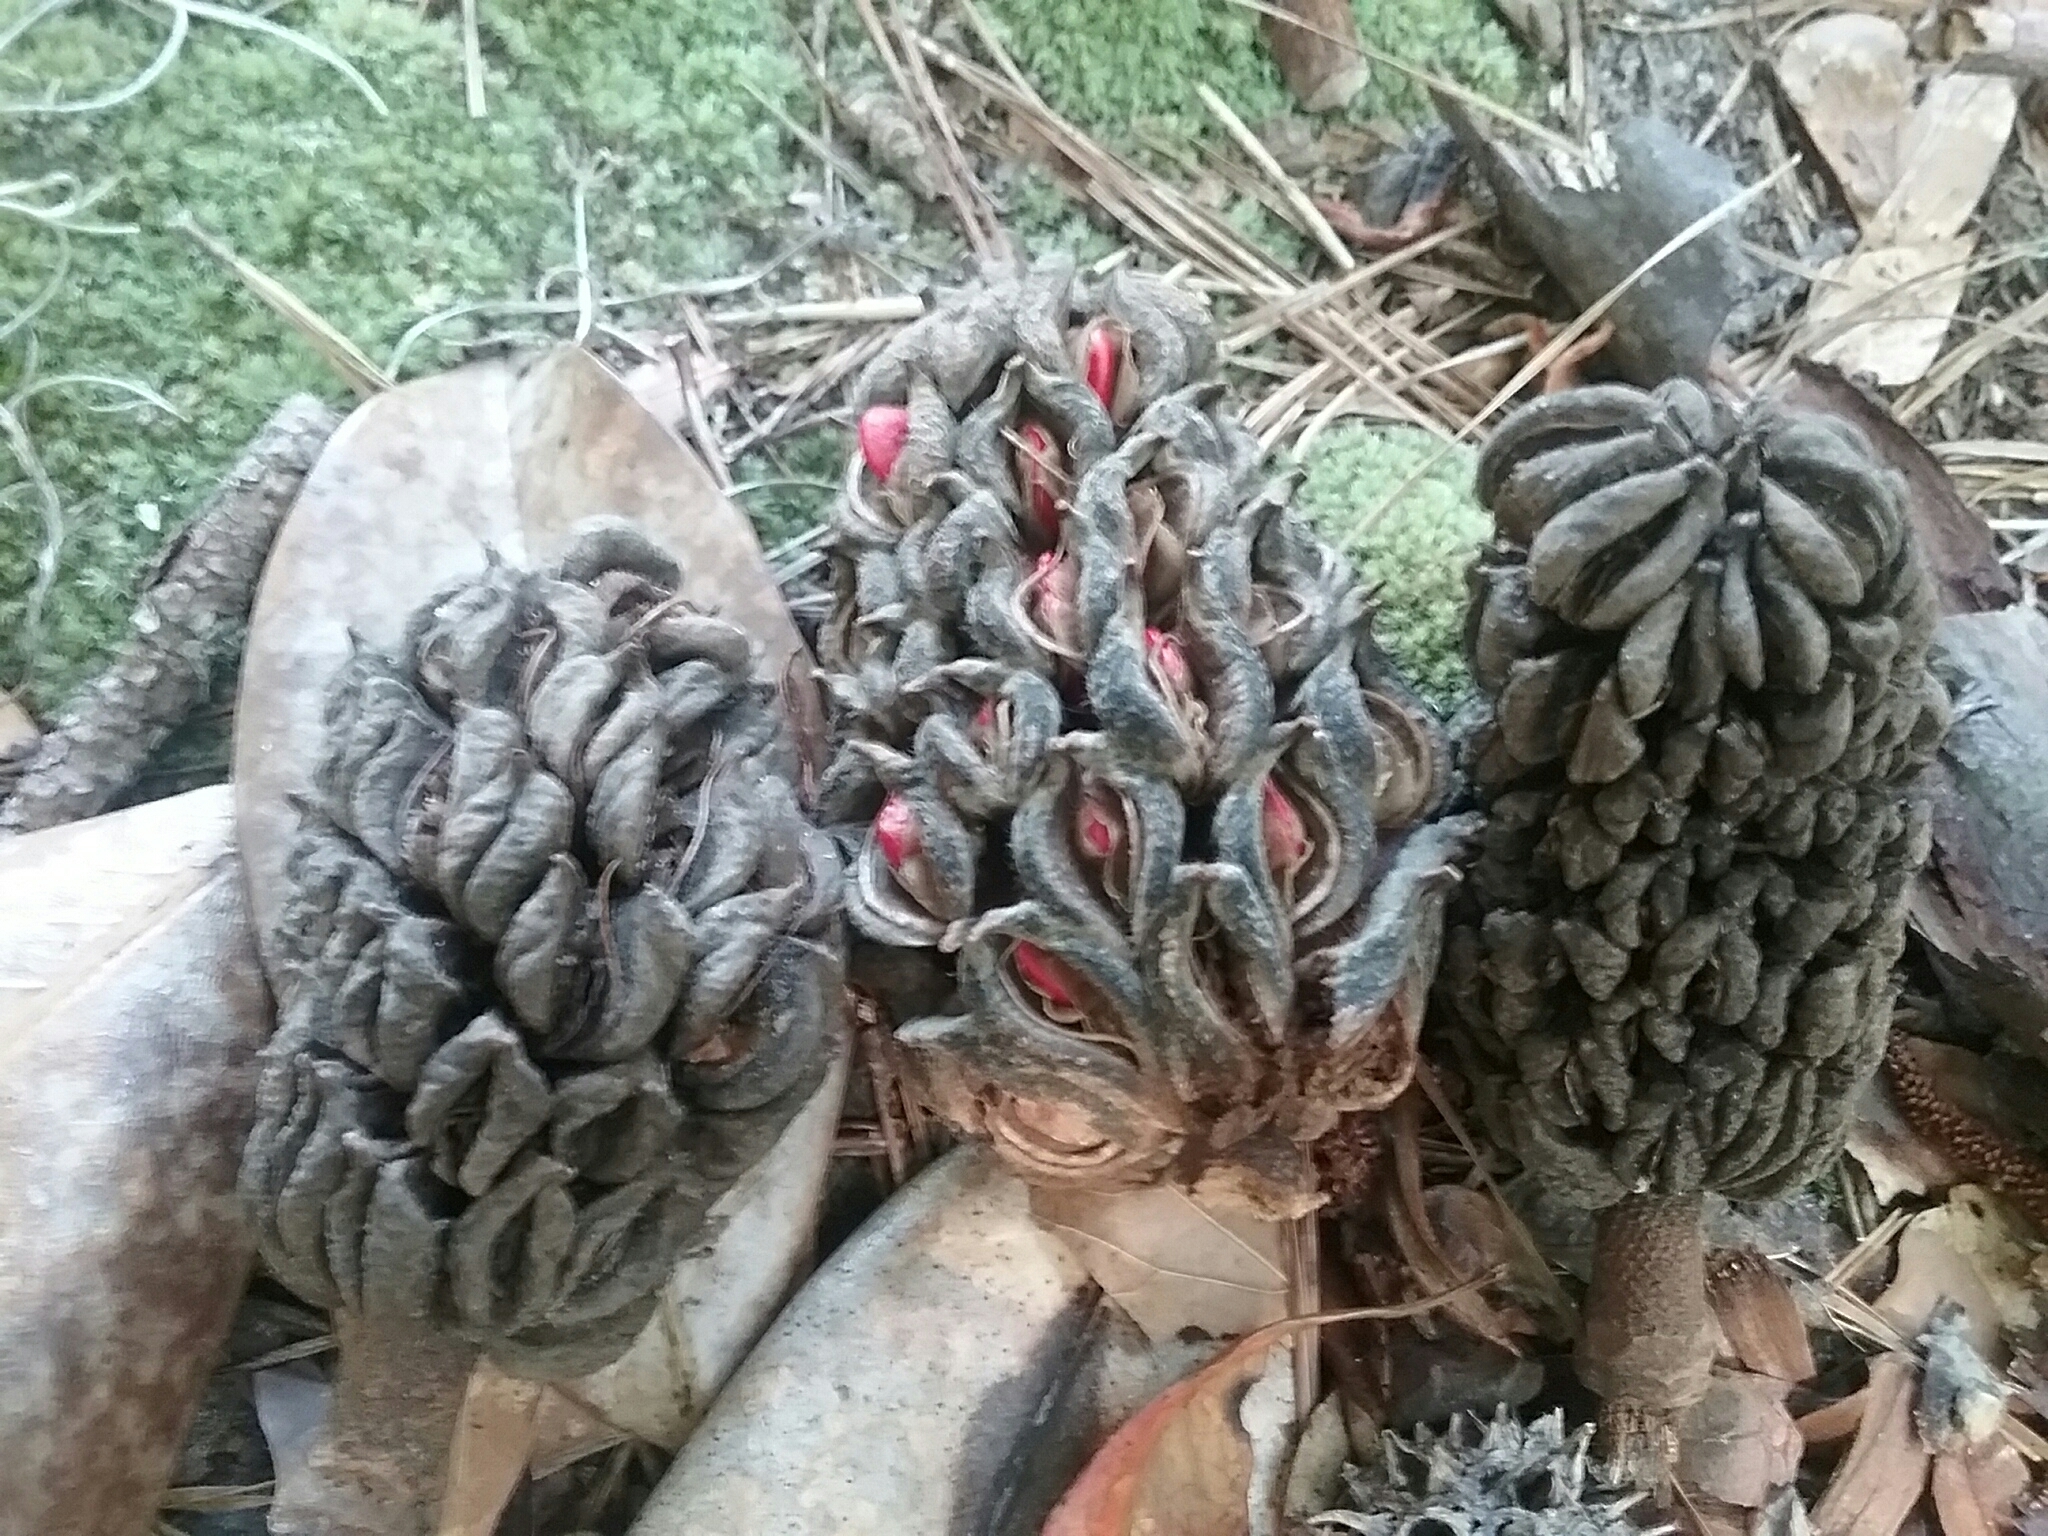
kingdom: Plantae
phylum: Tracheophyta
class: Magnoliopsida
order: Magnoliales
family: Magnoliaceae
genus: Magnolia
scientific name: Magnolia grandiflora
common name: Southern magnolia
